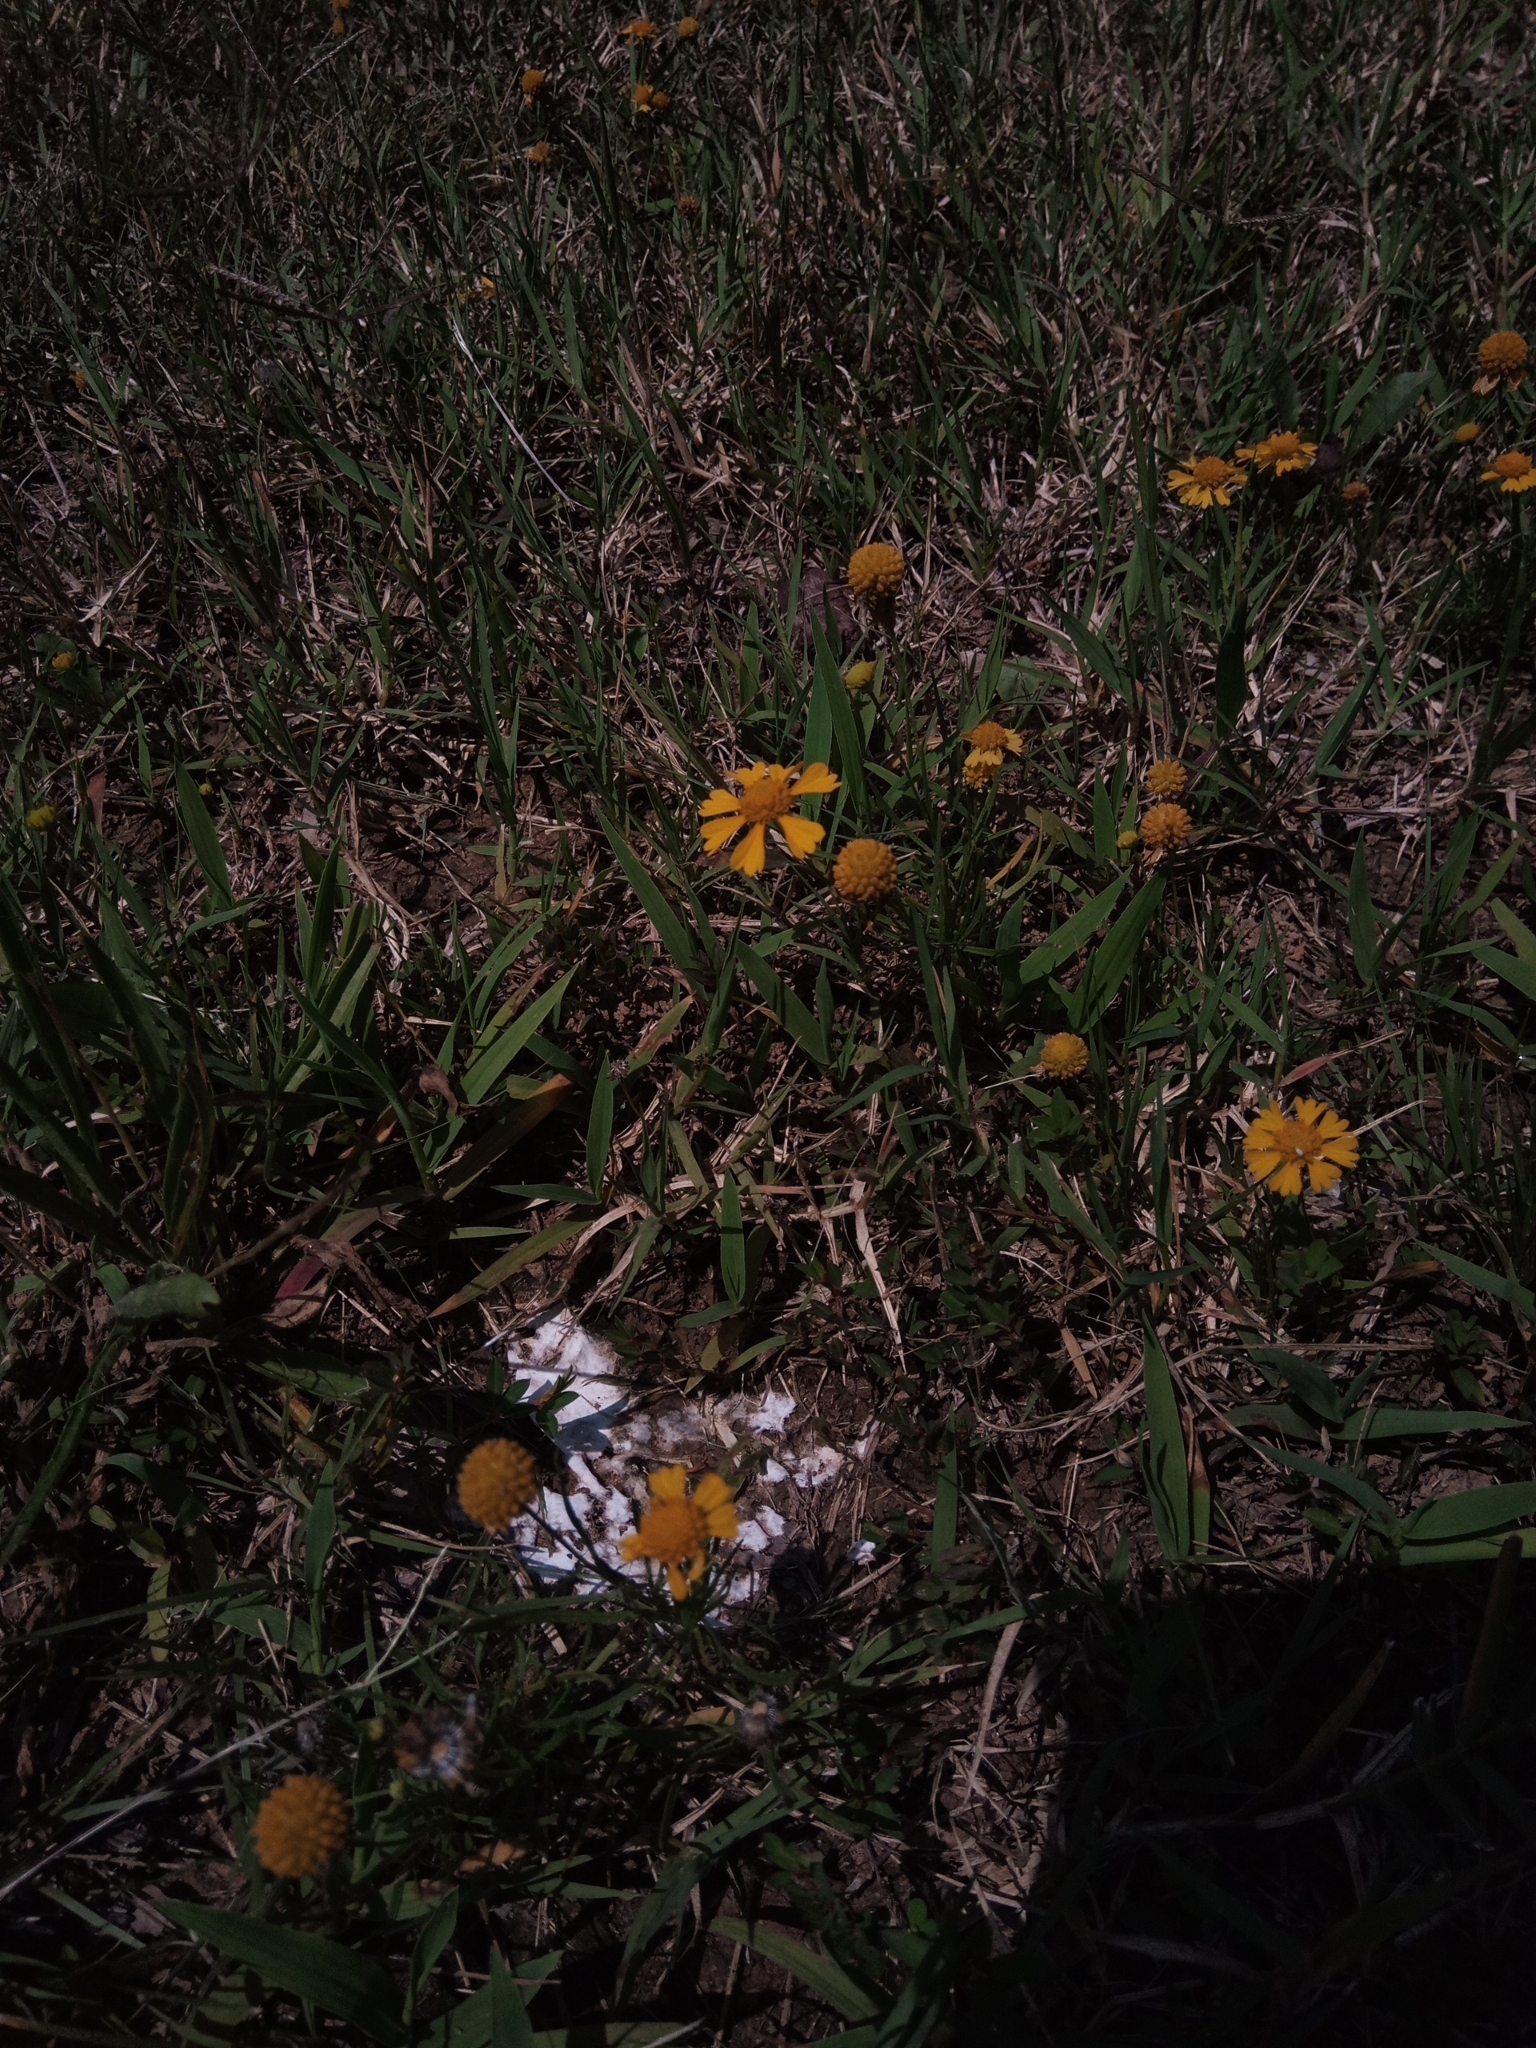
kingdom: Plantae
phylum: Tracheophyta
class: Magnoliopsida
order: Asterales
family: Asteraceae
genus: Helenium
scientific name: Helenium amarum
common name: Bitter sneezeweed
